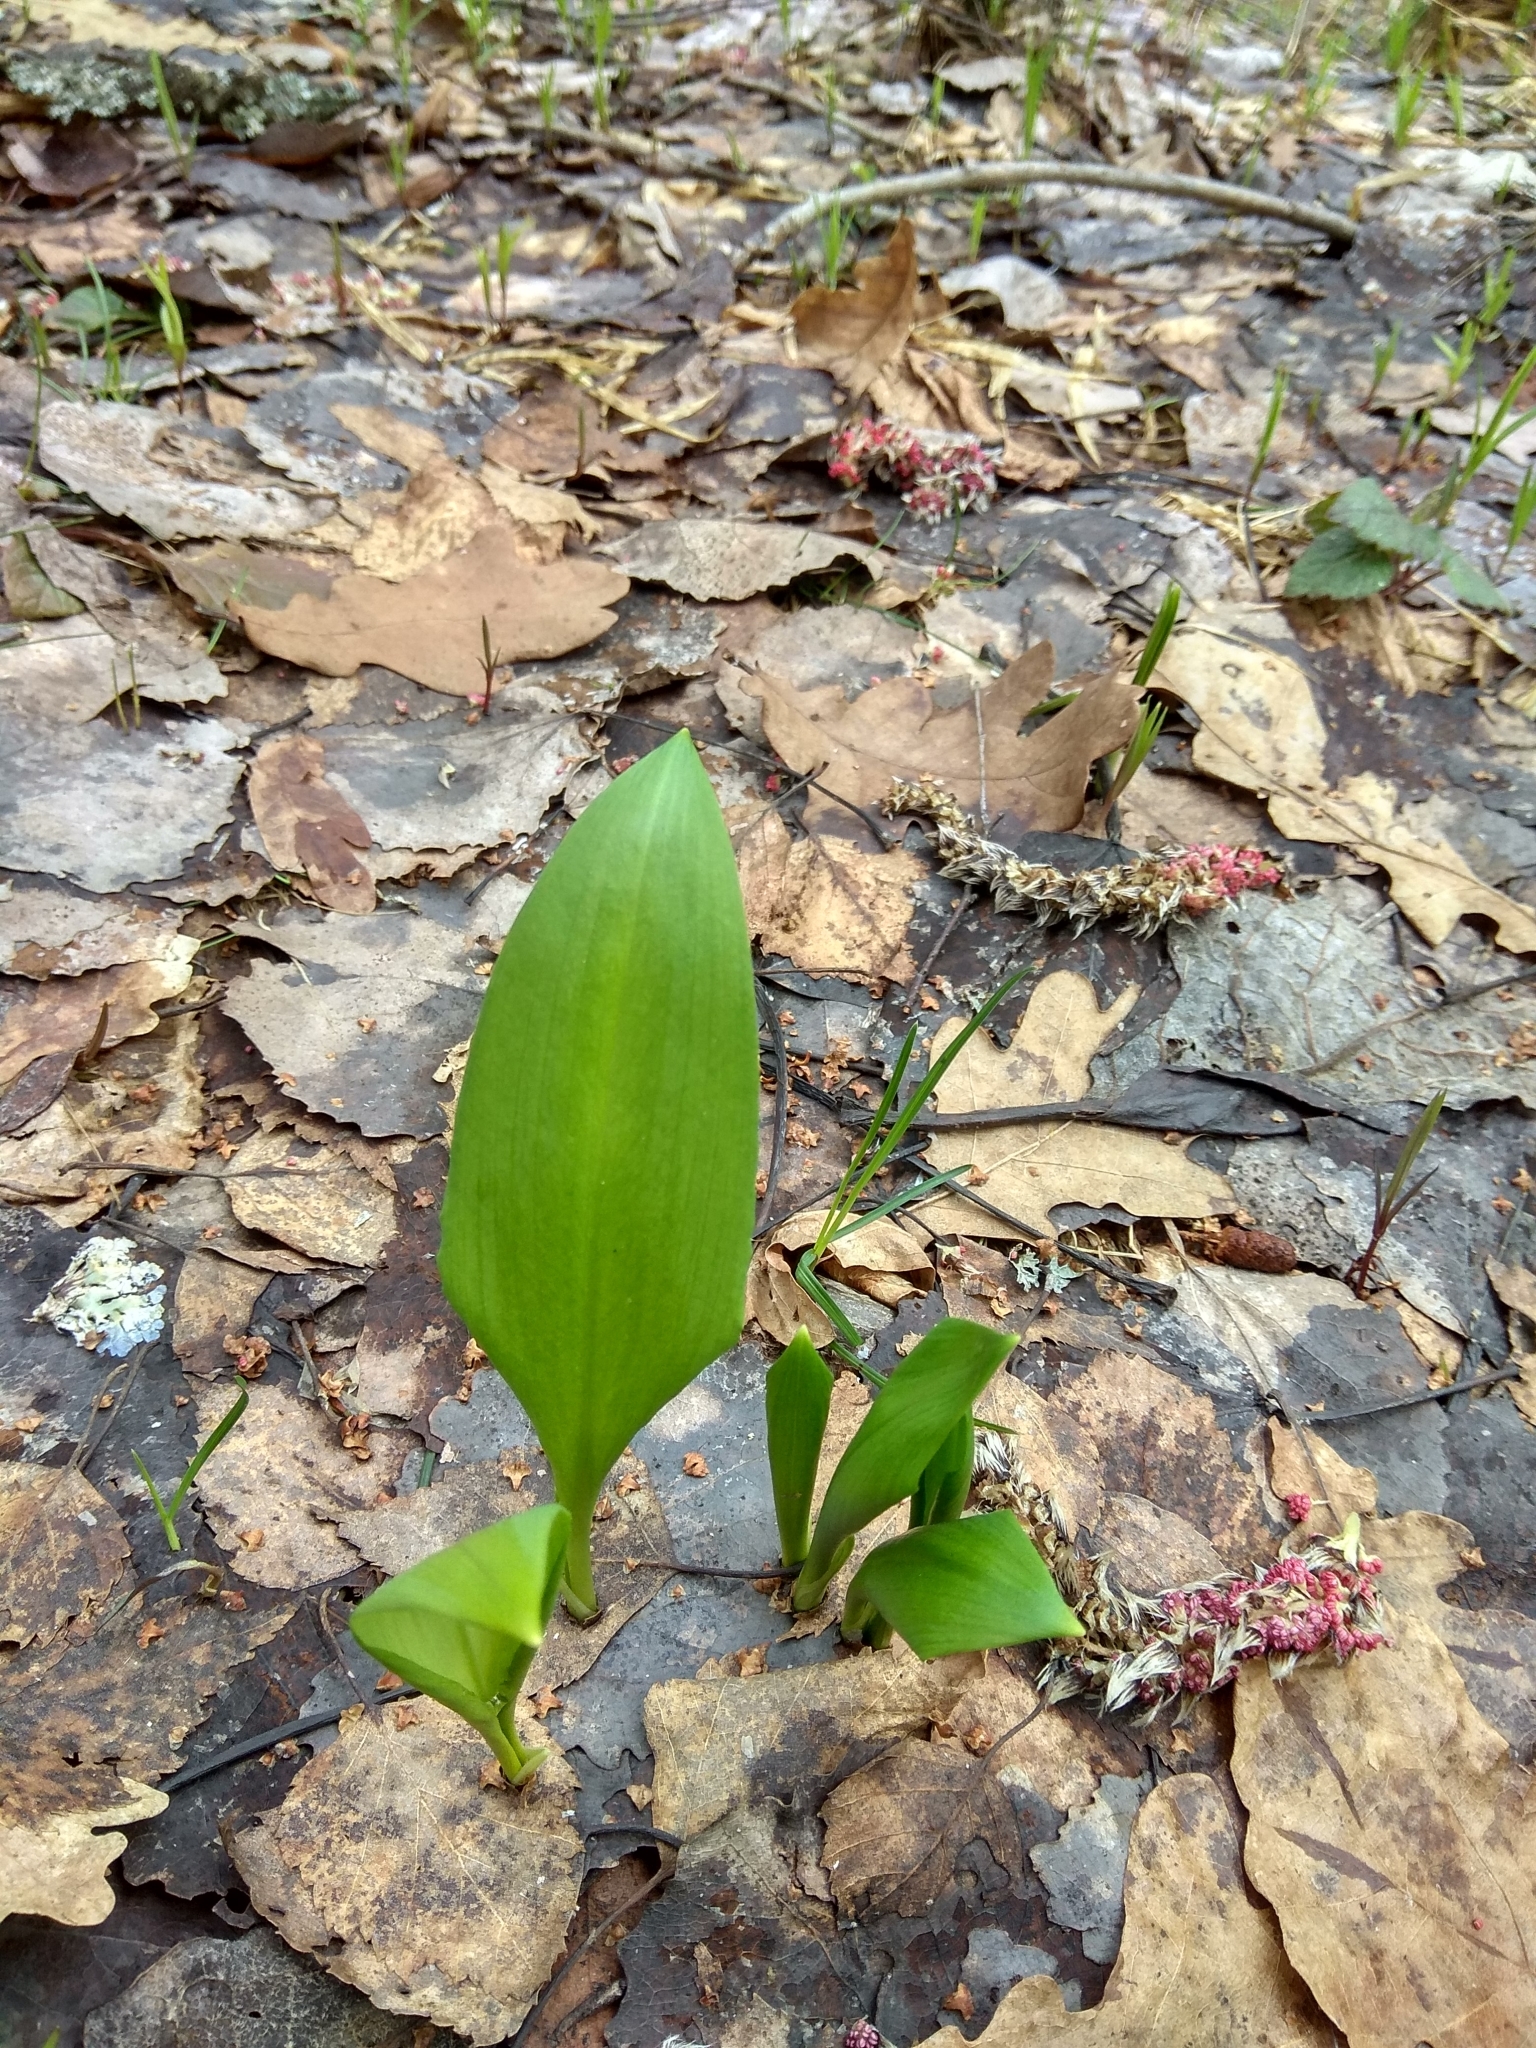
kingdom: Plantae
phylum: Tracheophyta
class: Liliopsida
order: Asparagales
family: Amaryllidaceae
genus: Allium
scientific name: Allium ursinum
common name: Ramsons
